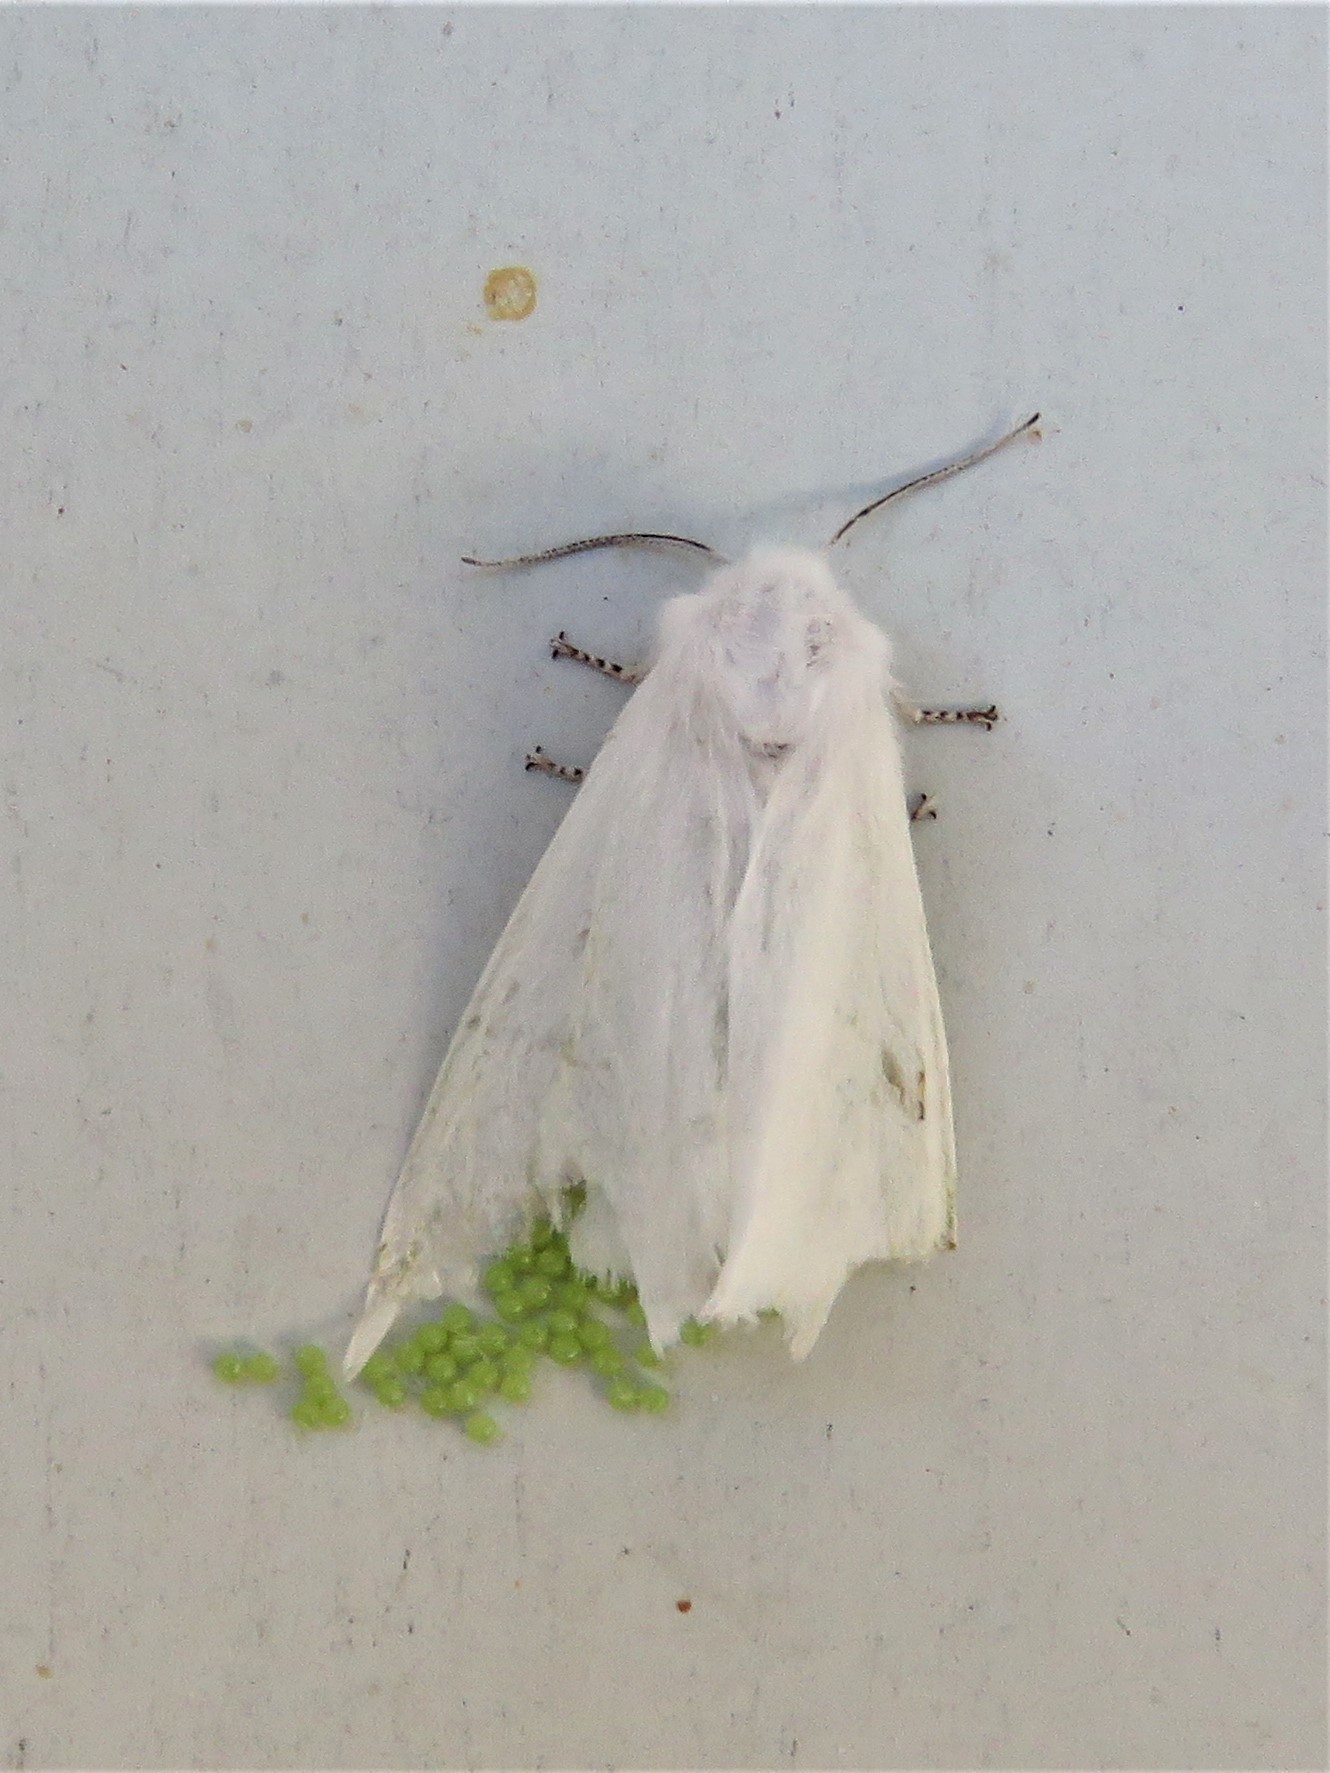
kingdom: Animalia
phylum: Arthropoda
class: Insecta
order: Lepidoptera
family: Erebidae
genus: Hyphantria
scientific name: Hyphantria cunea
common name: American white moth
